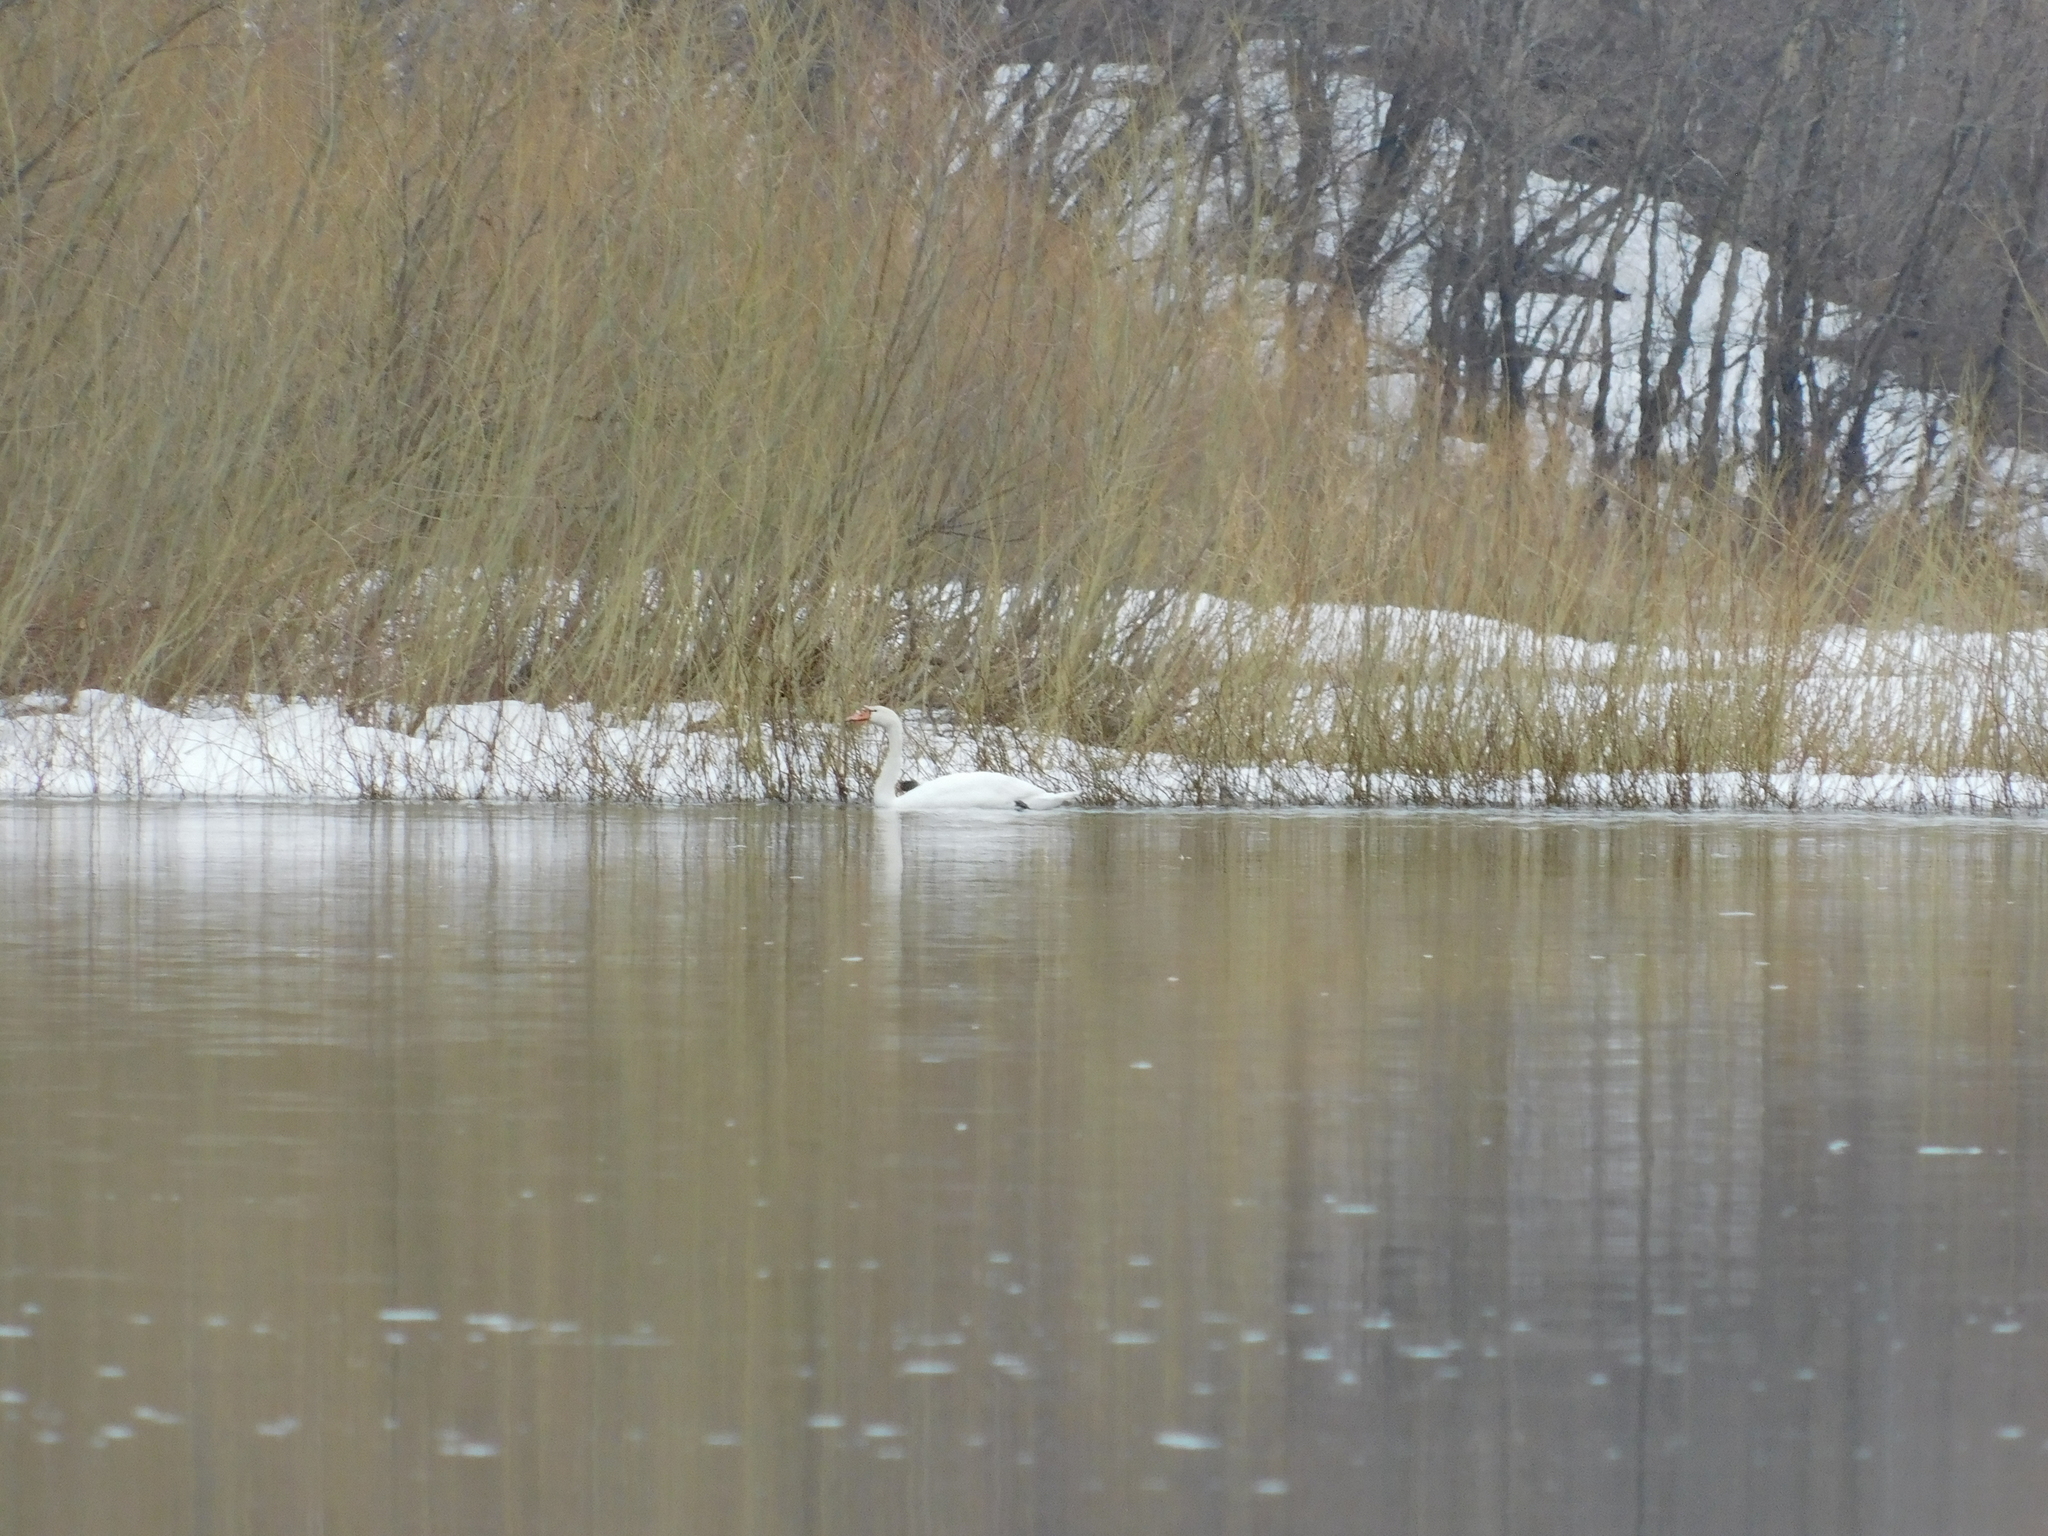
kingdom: Animalia
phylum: Chordata
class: Aves
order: Anseriformes
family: Anatidae
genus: Cygnus
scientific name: Cygnus olor
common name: Mute swan
